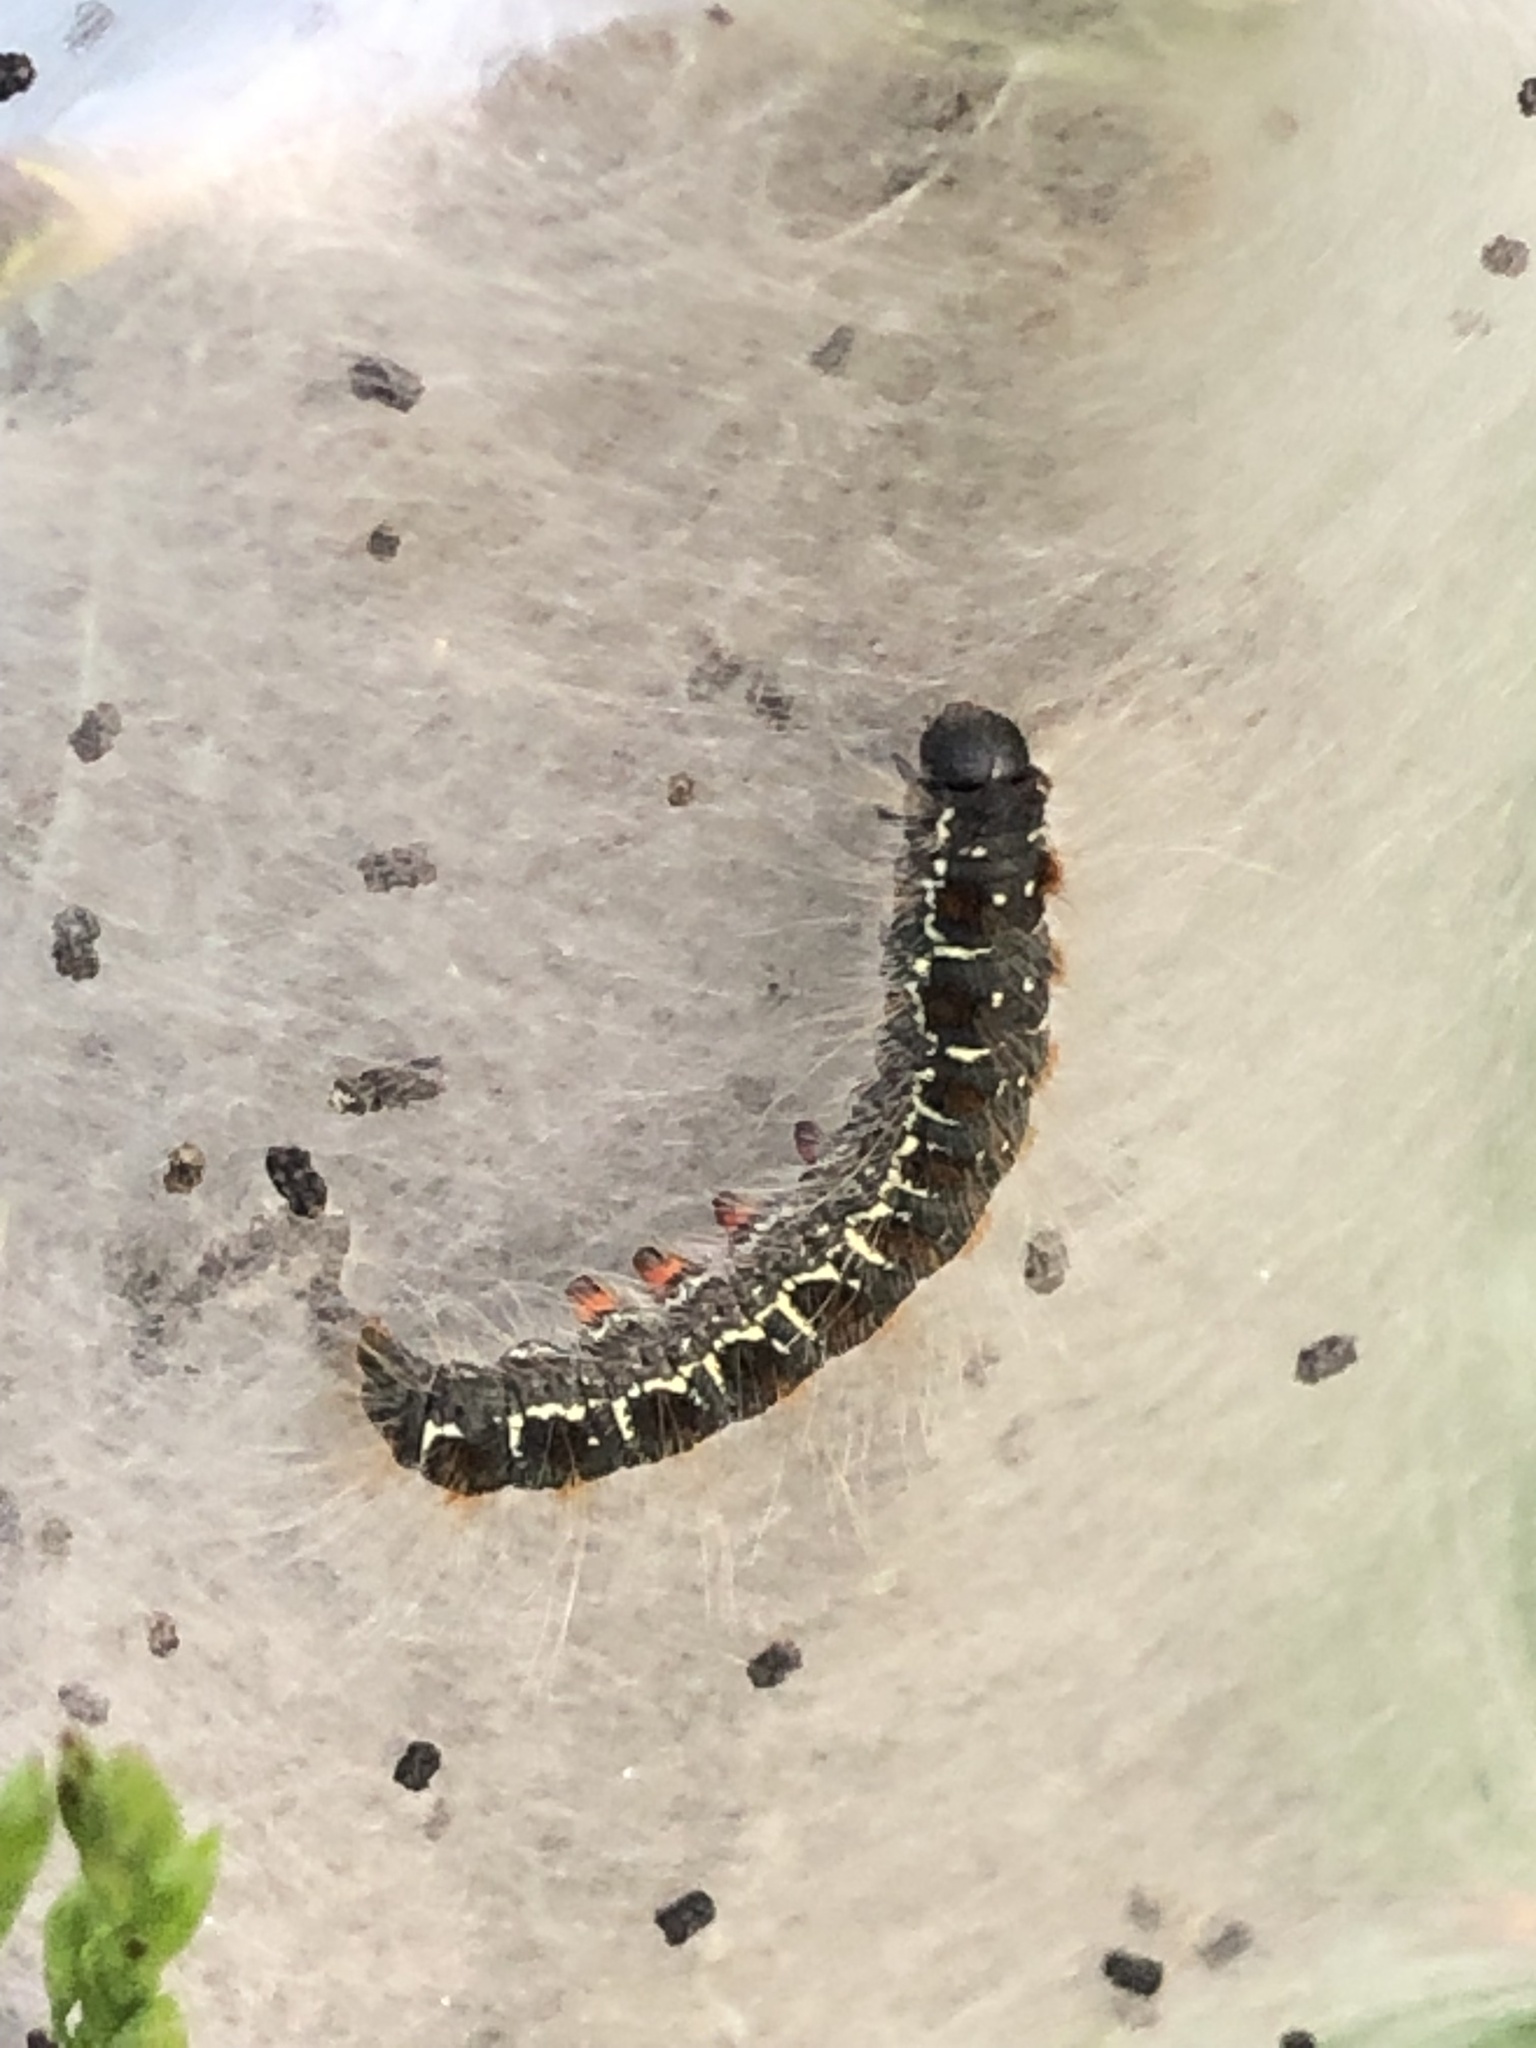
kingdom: Animalia
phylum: Arthropoda
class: Insecta
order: Lepidoptera
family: Lasiocampidae
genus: Eriogaster
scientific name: Eriogaster lanestris
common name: Small eggar
